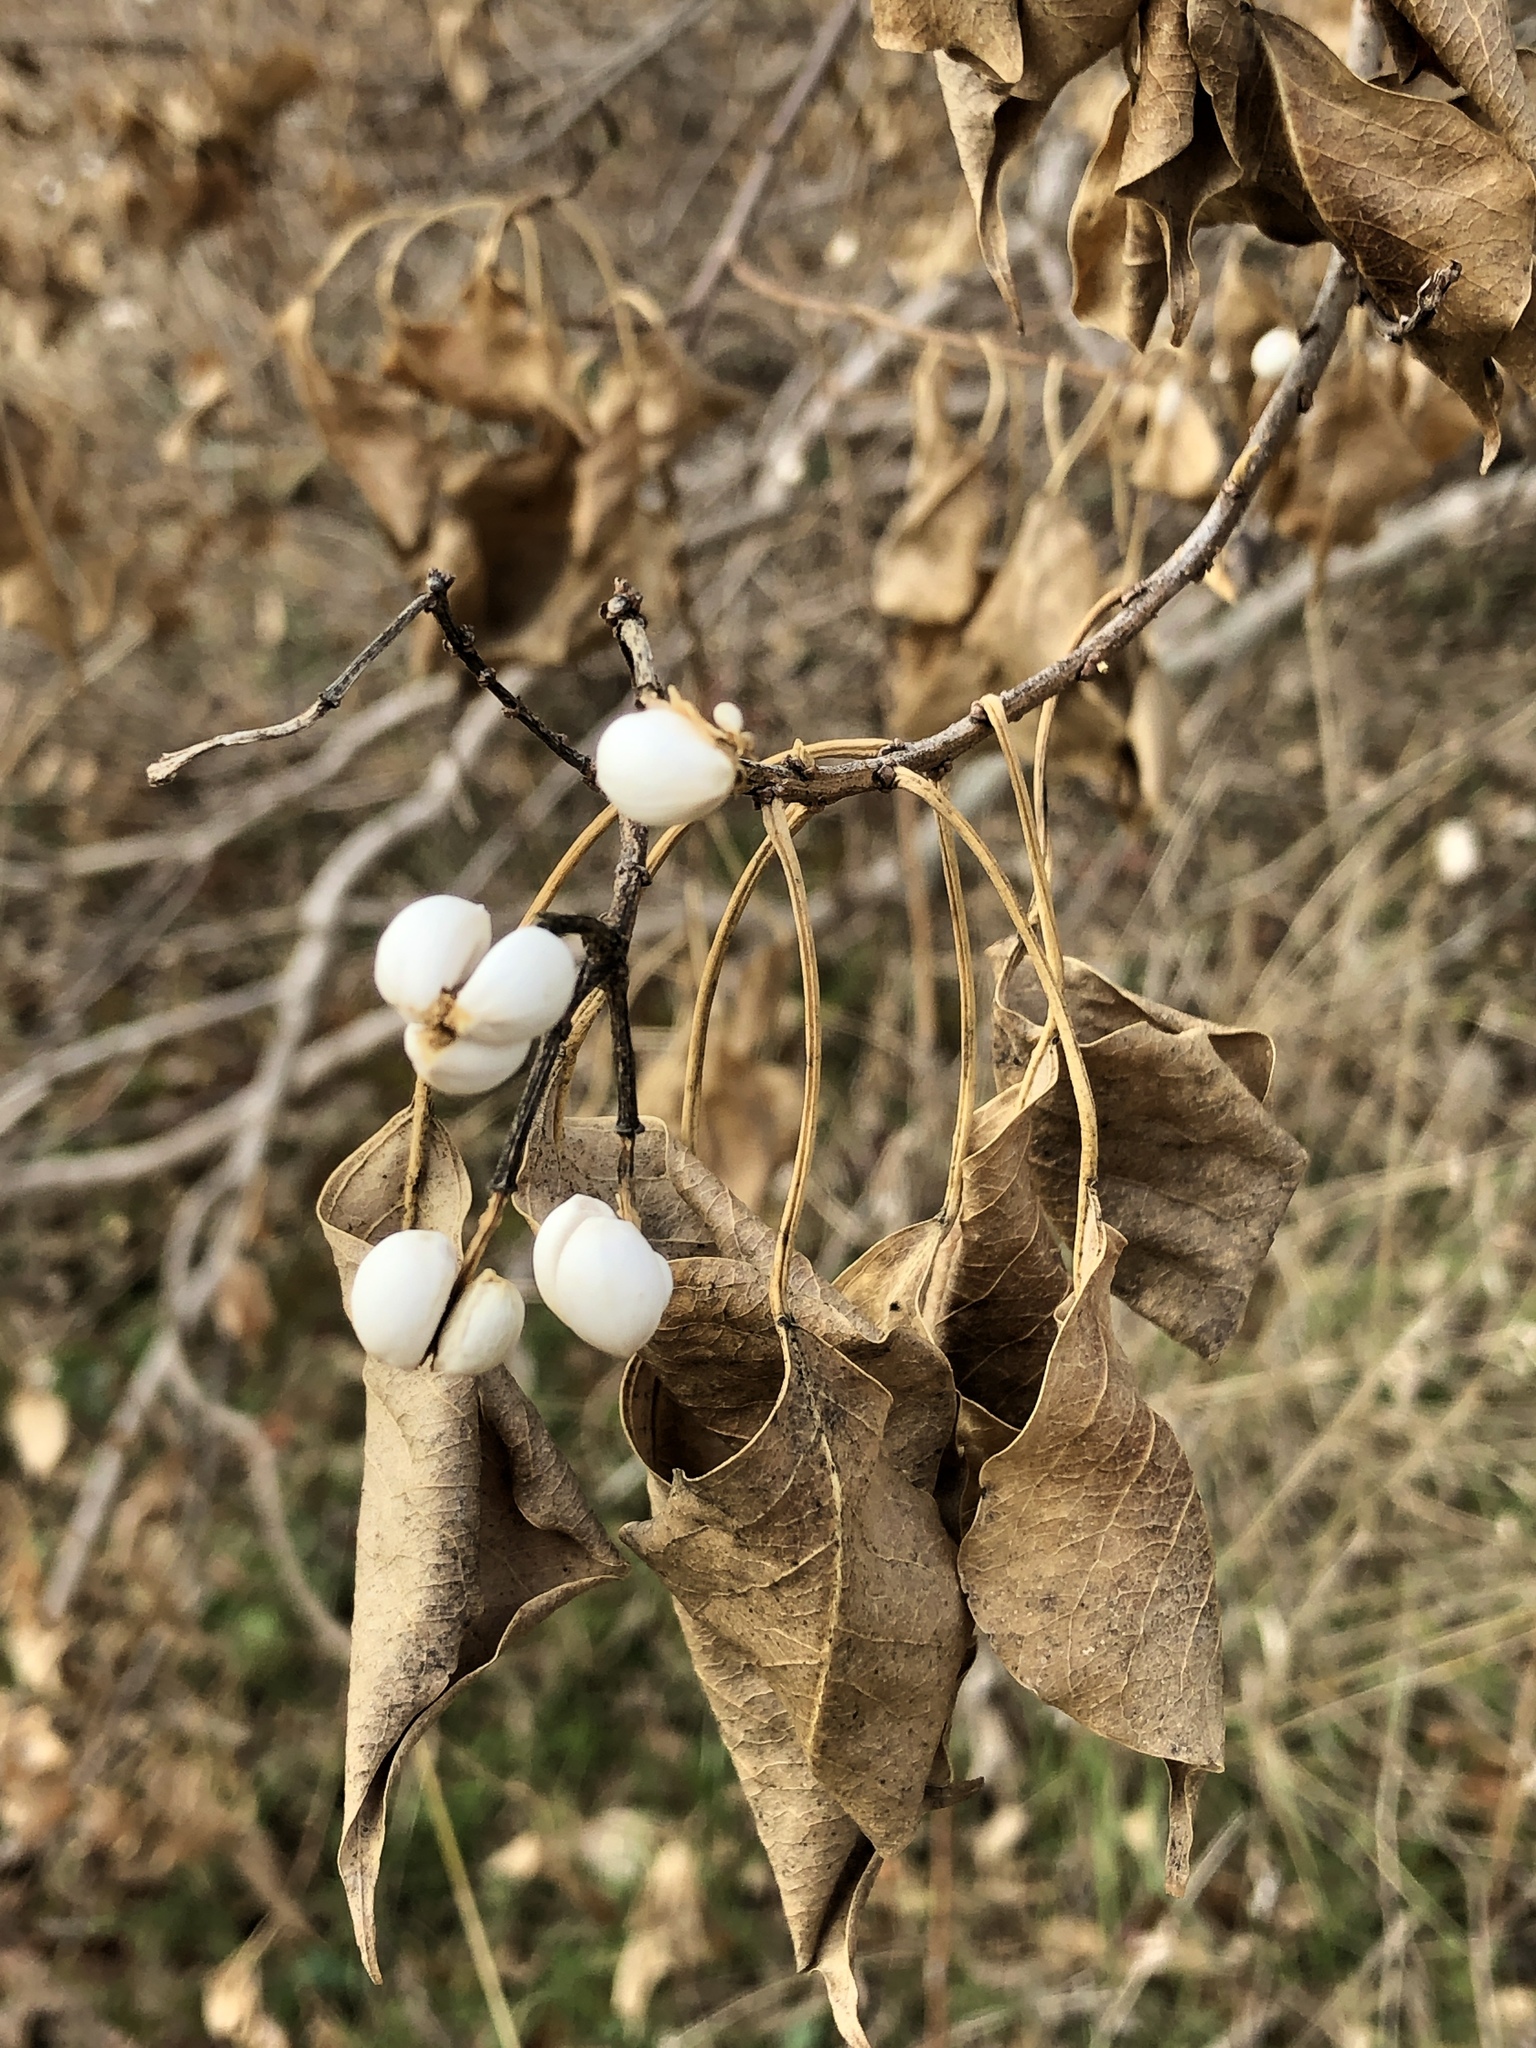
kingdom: Plantae
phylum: Tracheophyta
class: Magnoliopsida
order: Malpighiales
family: Euphorbiaceae
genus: Triadica
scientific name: Triadica sebifera
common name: Chinese tallow
